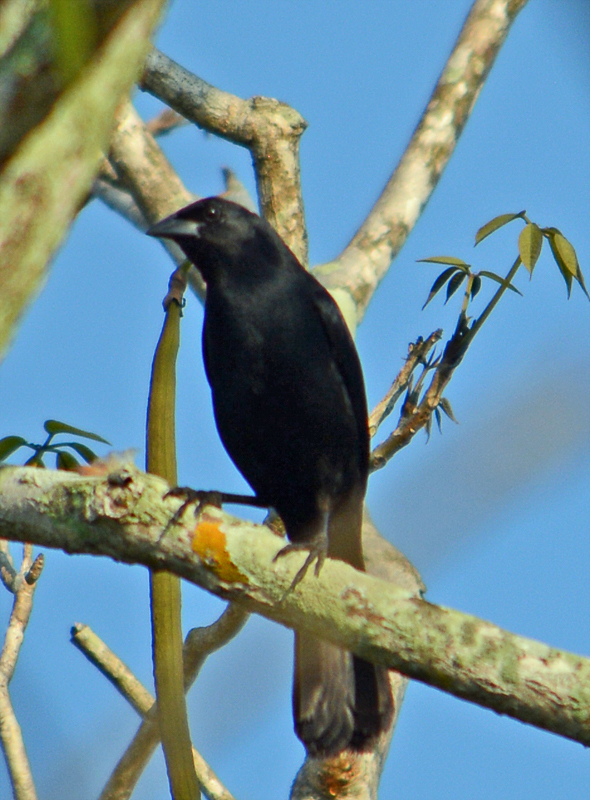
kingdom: Animalia
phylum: Chordata
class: Aves
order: Passeriformes
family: Icteridae
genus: Dives
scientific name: Dives dives
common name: Melodious blackbird
